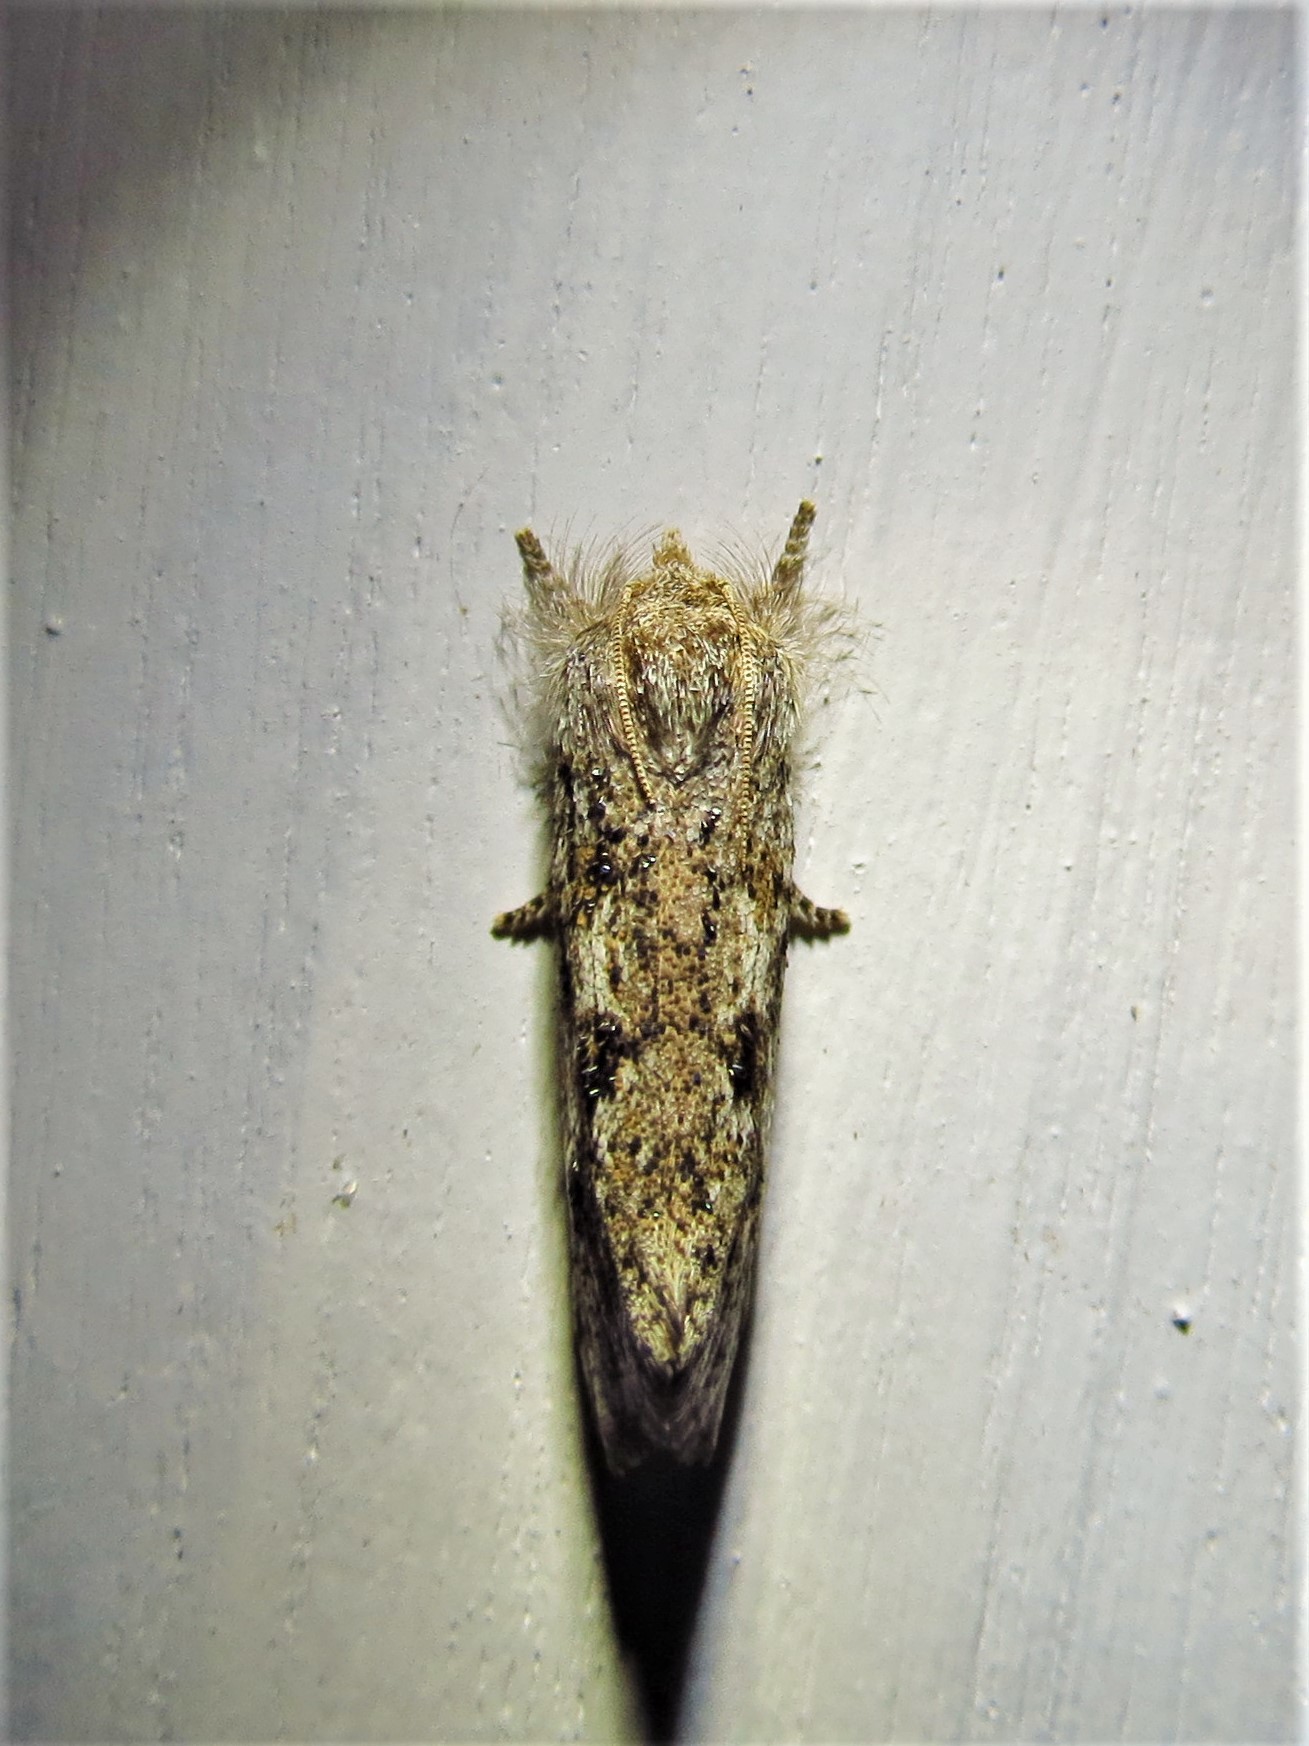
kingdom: Animalia
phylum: Arthropoda
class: Insecta
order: Lepidoptera
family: Tineidae
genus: Acrolophus
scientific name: Acrolophus griseus
